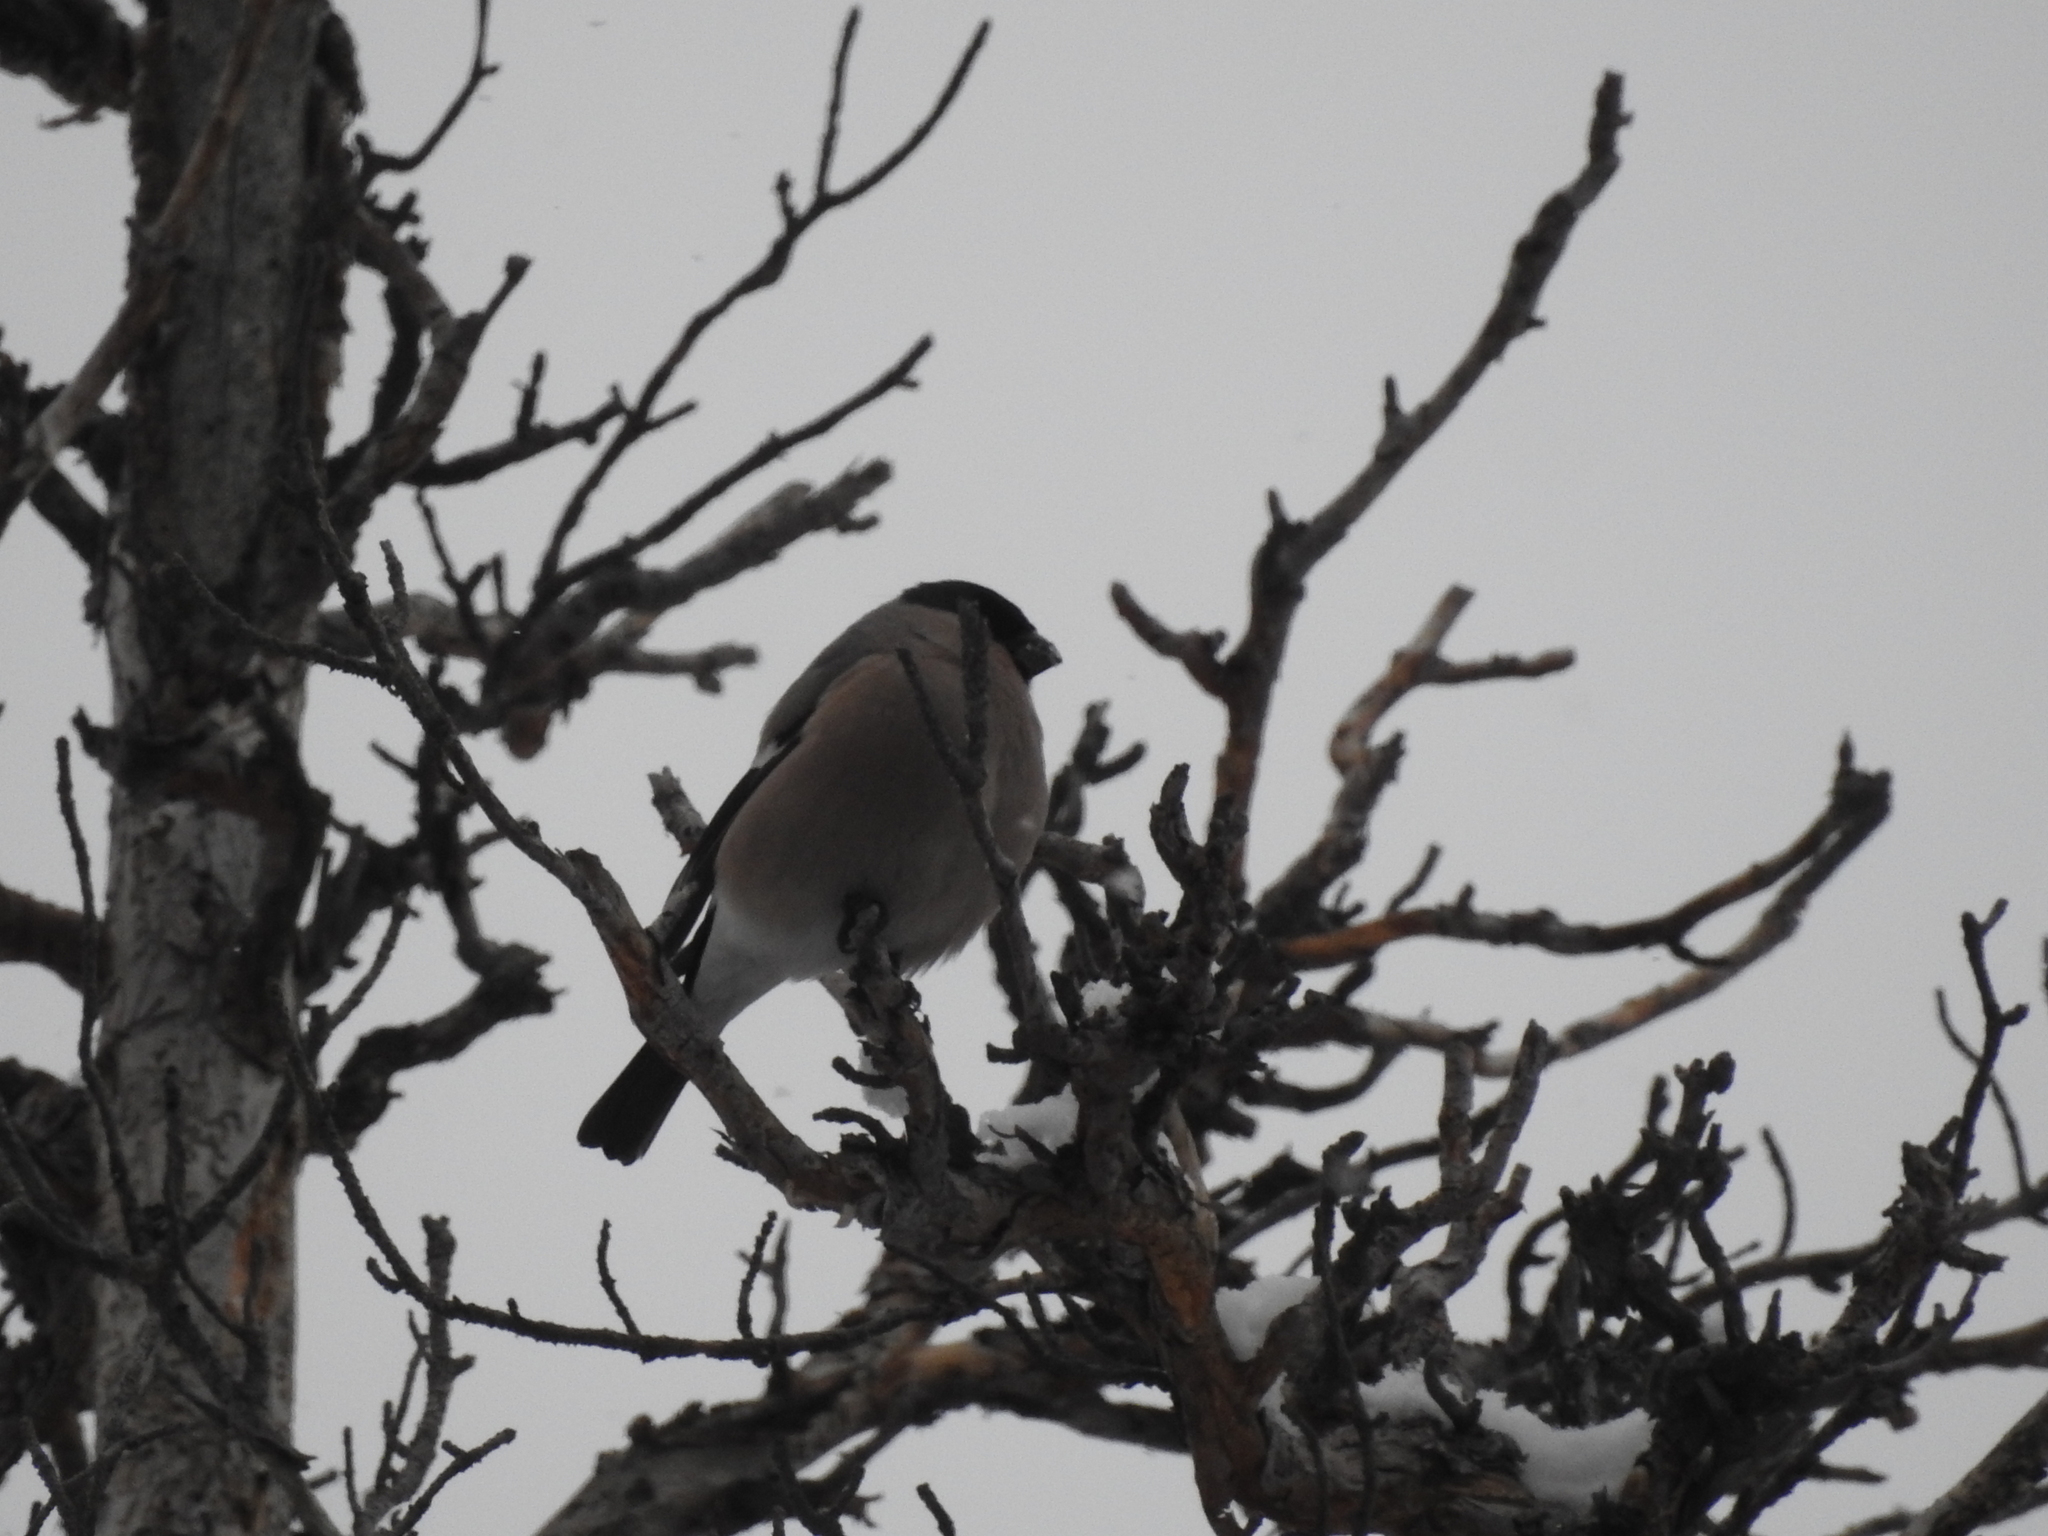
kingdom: Animalia
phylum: Chordata
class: Aves
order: Passeriformes
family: Fringillidae
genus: Pyrrhula
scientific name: Pyrrhula pyrrhula
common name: Eurasian bullfinch
